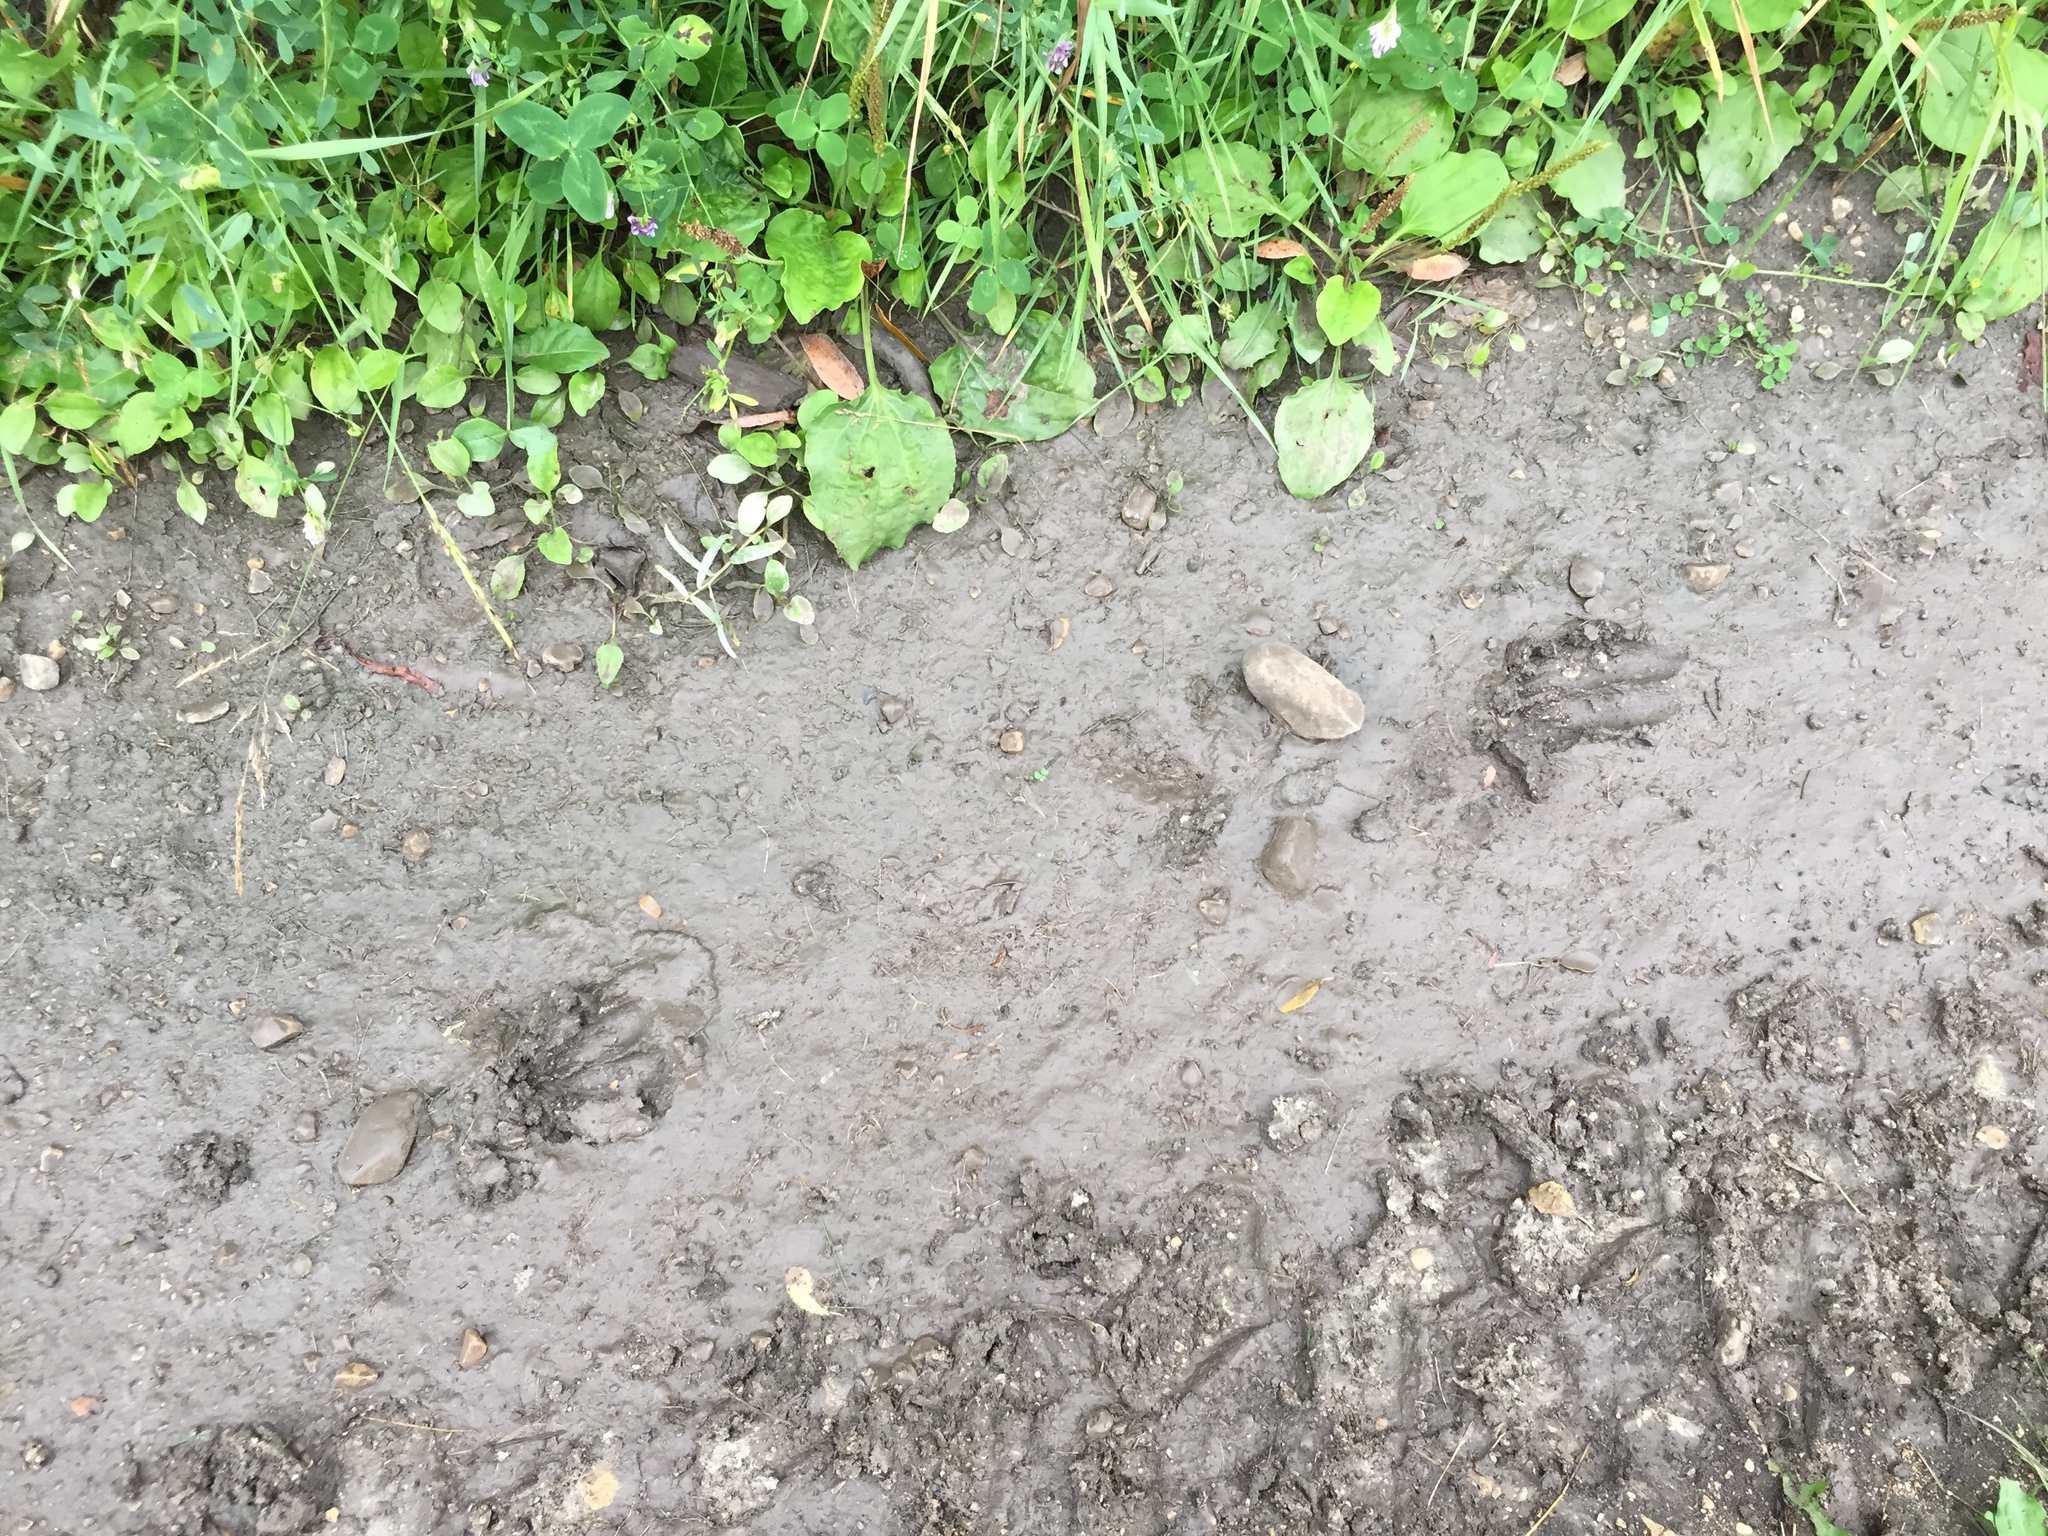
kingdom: Animalia
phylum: Chordata
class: Mammalia
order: Artiodactyla
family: Cervidae
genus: Odocoileus
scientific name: Odocoileus virginianus
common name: White-tailed deer
